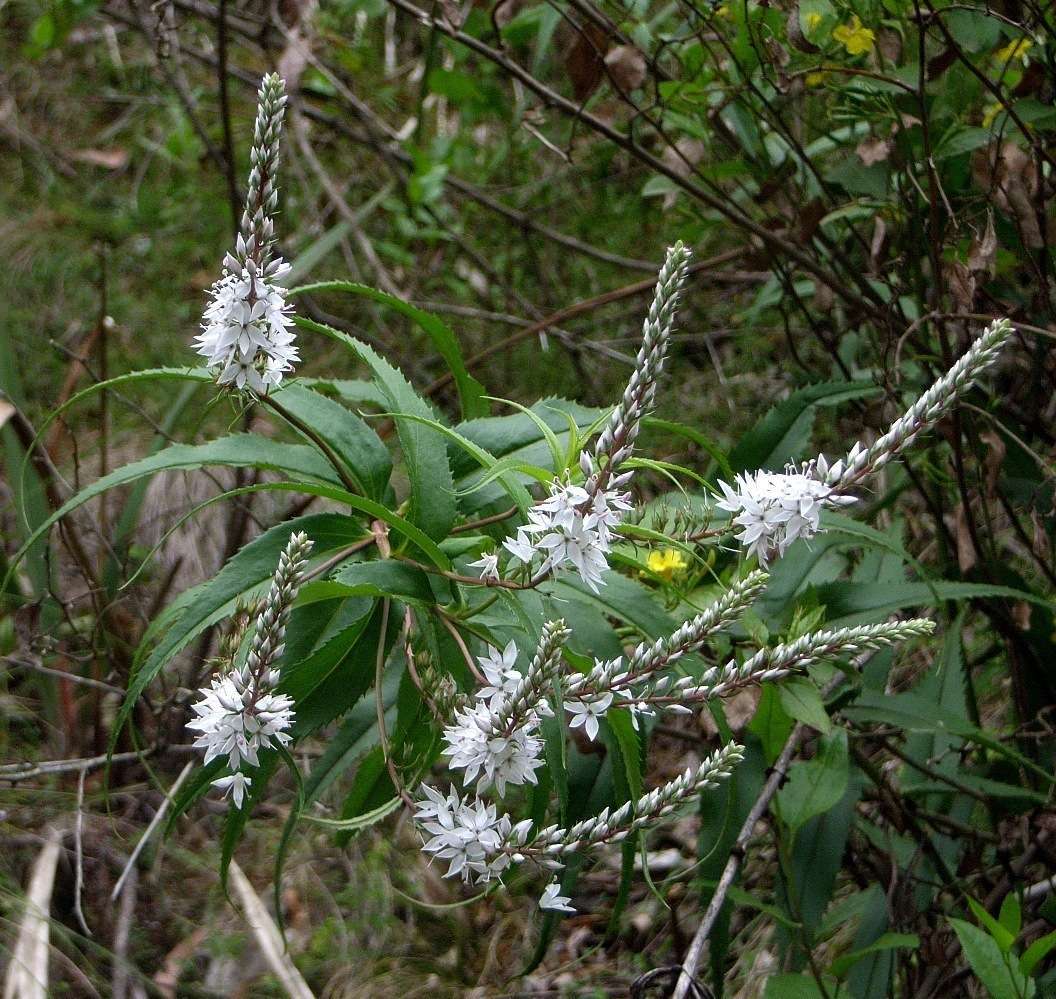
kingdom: Plantae
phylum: Tracheophyta
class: Magnoliopsida
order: Lamiales
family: Plantaginaceae
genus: Veronica
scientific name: Veronica derwentiana
